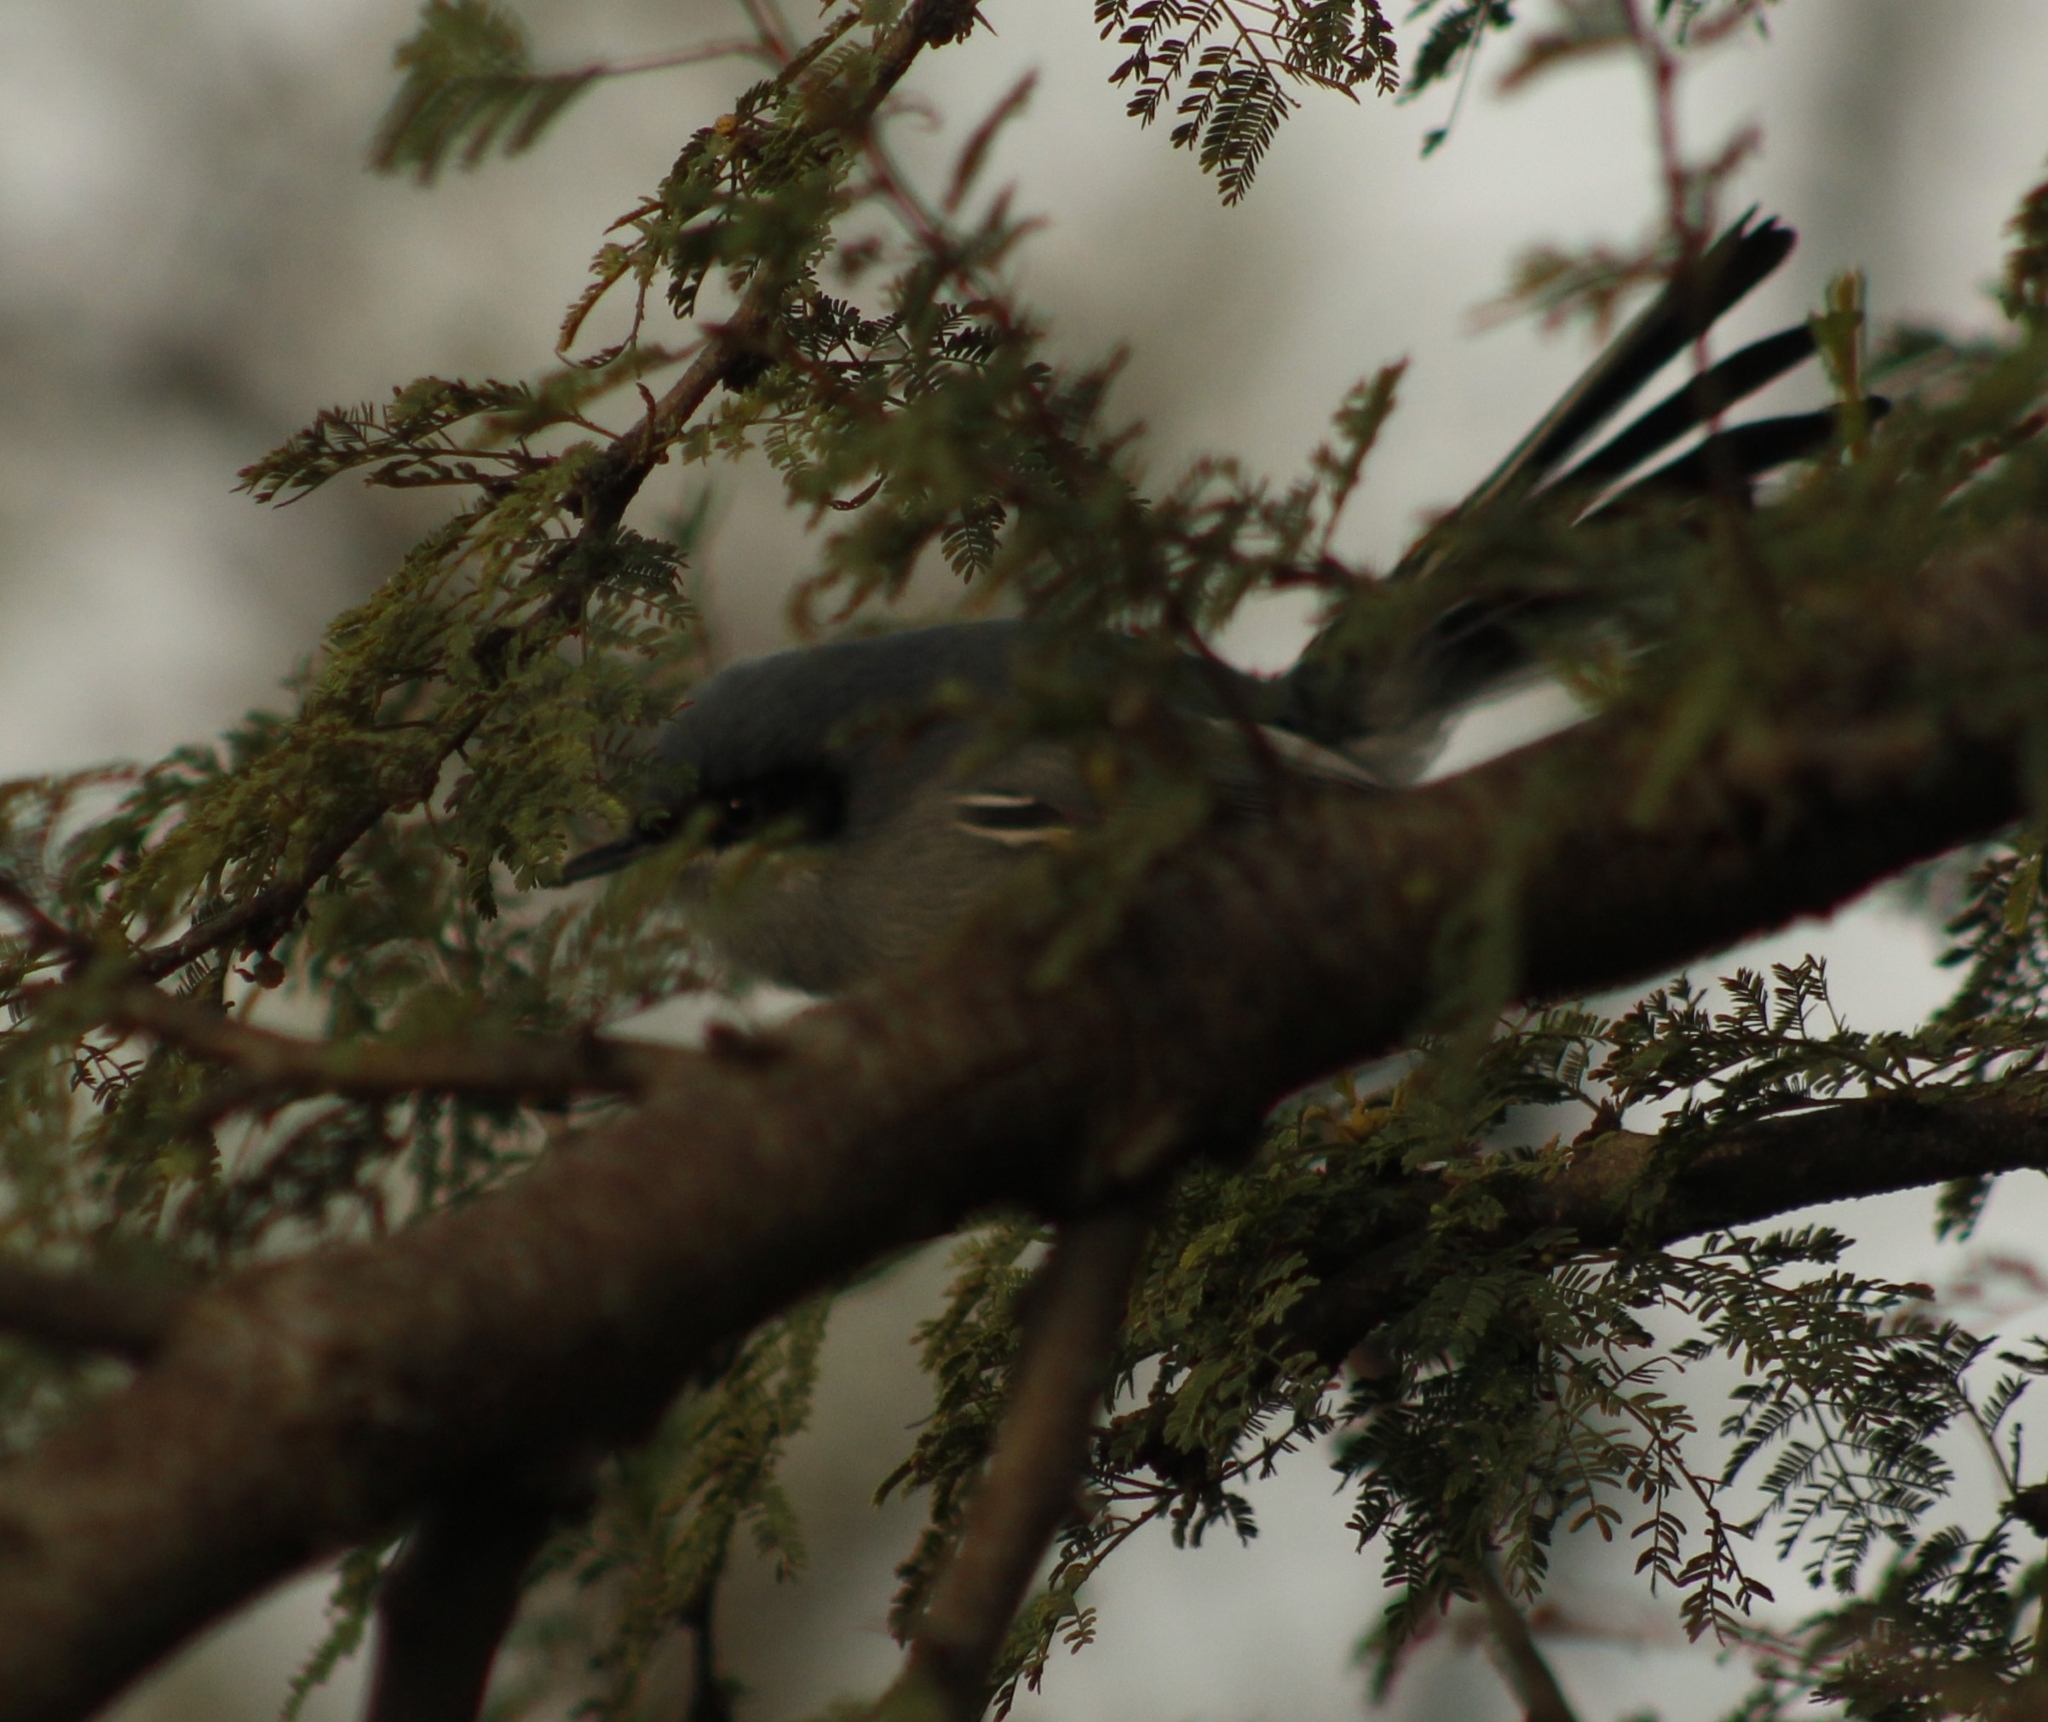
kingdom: Animalia
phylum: Chordata
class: Aves
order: Passeriformes
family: Polioptilidae
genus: Polioptila
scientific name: Polioptila dumicola
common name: Masked gnatcatcher
